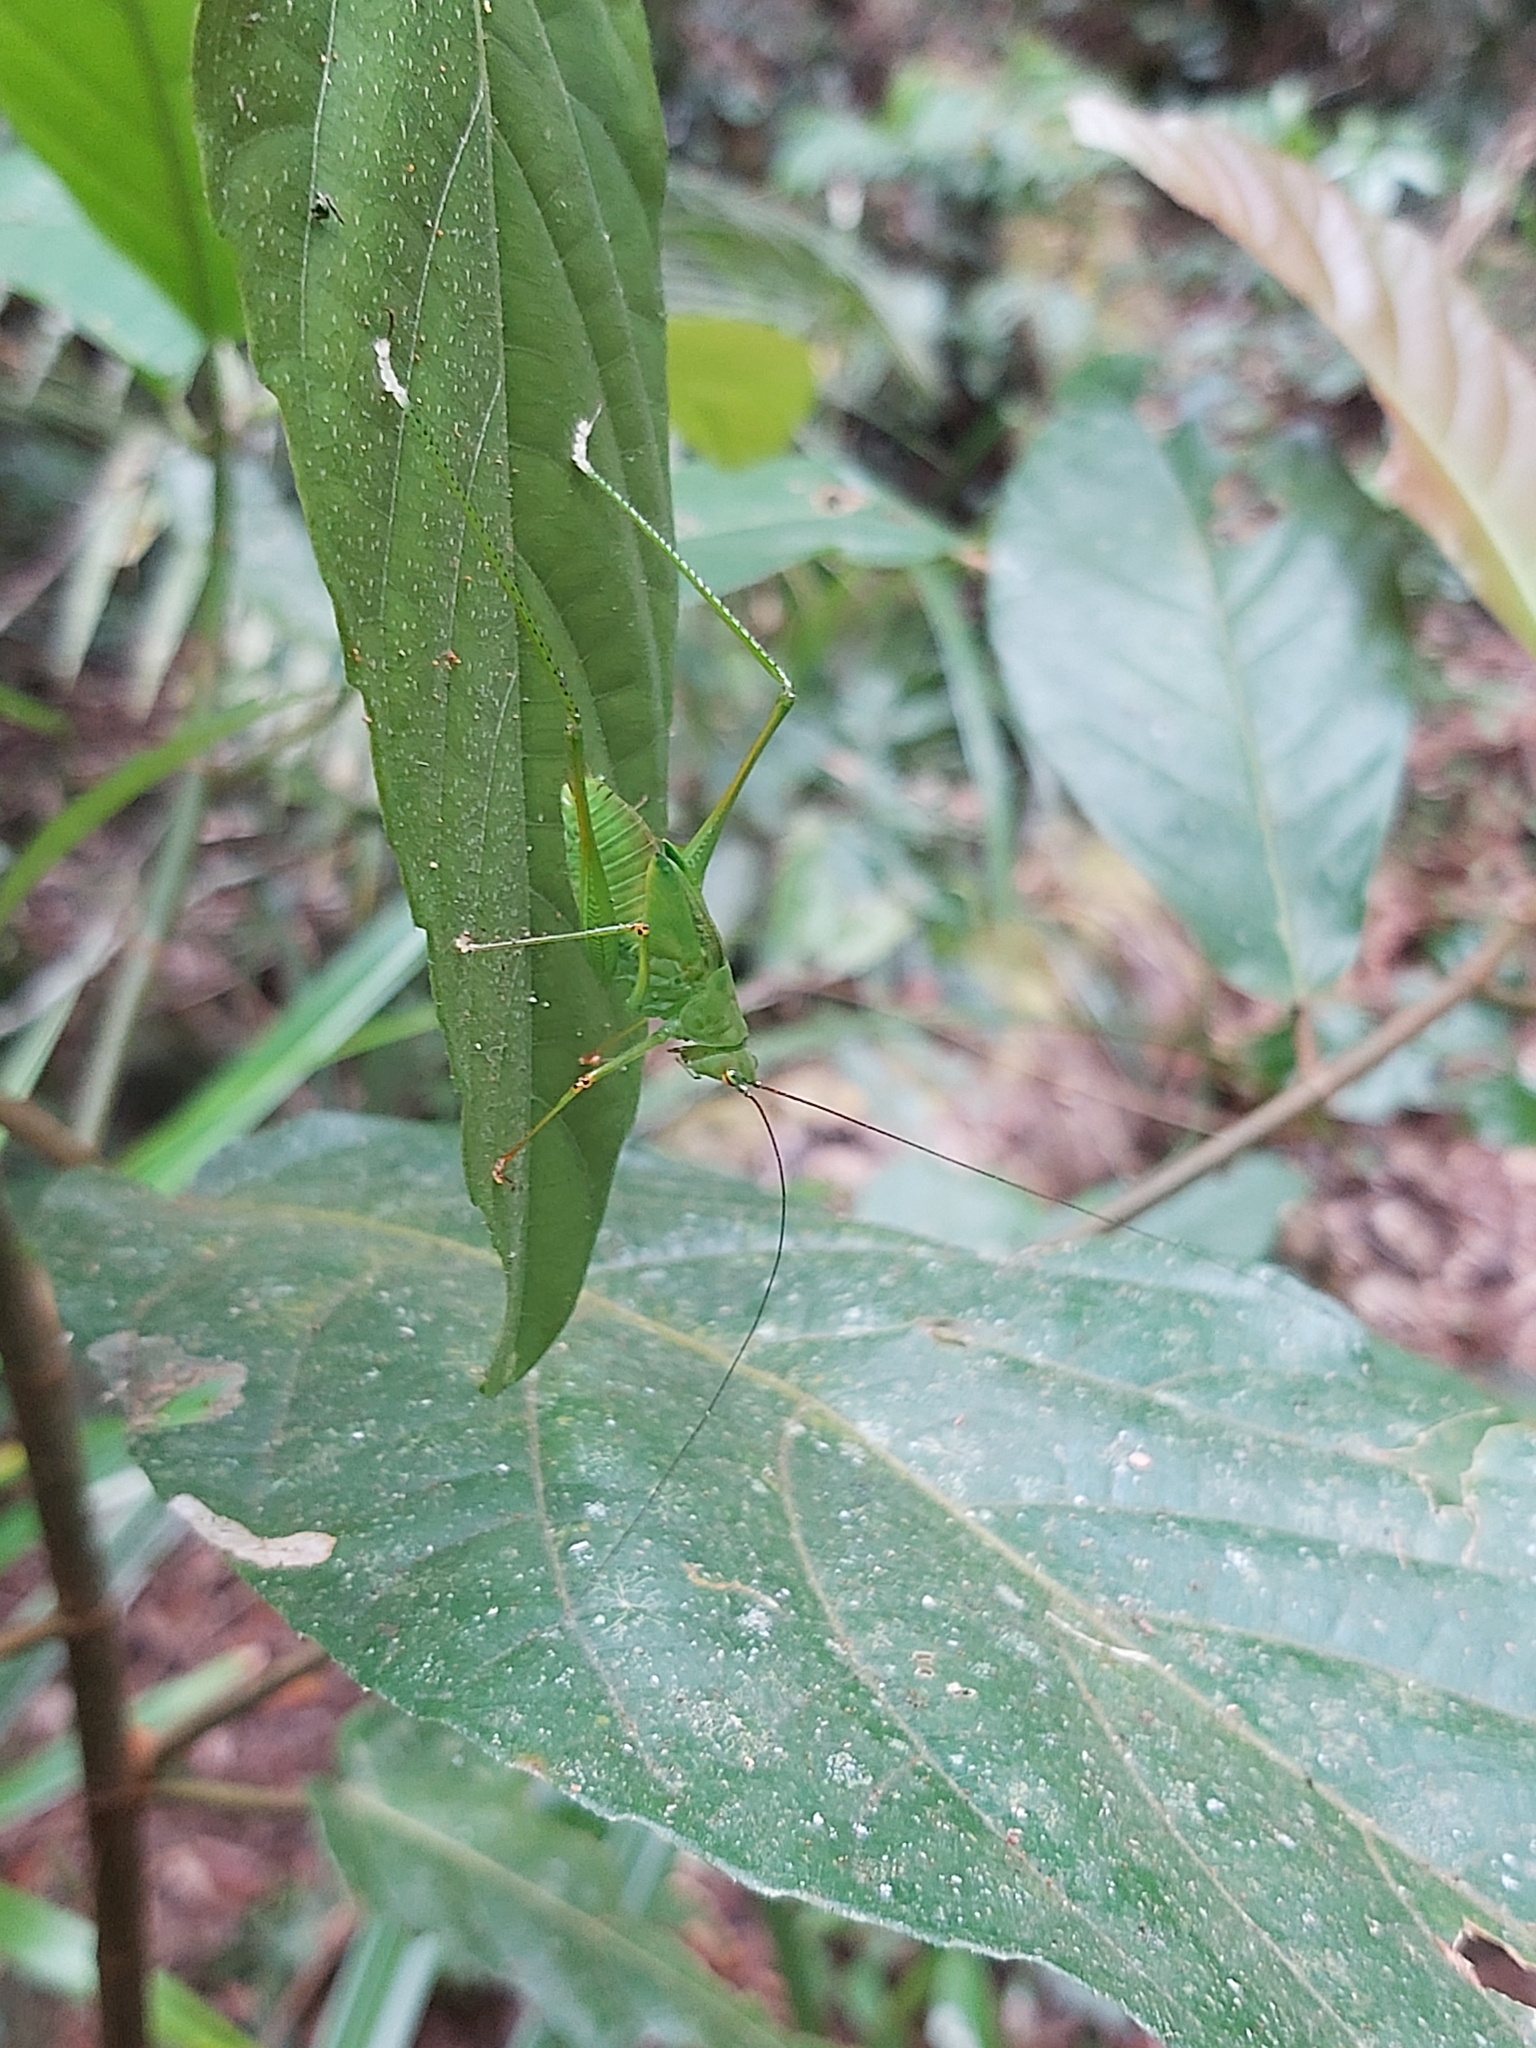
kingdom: Animalia
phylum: Arthropoda
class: Insecta
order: Orthoptera
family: Tettigoniidae
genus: Leucopodoptera
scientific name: Leucopodoptera eumundii
